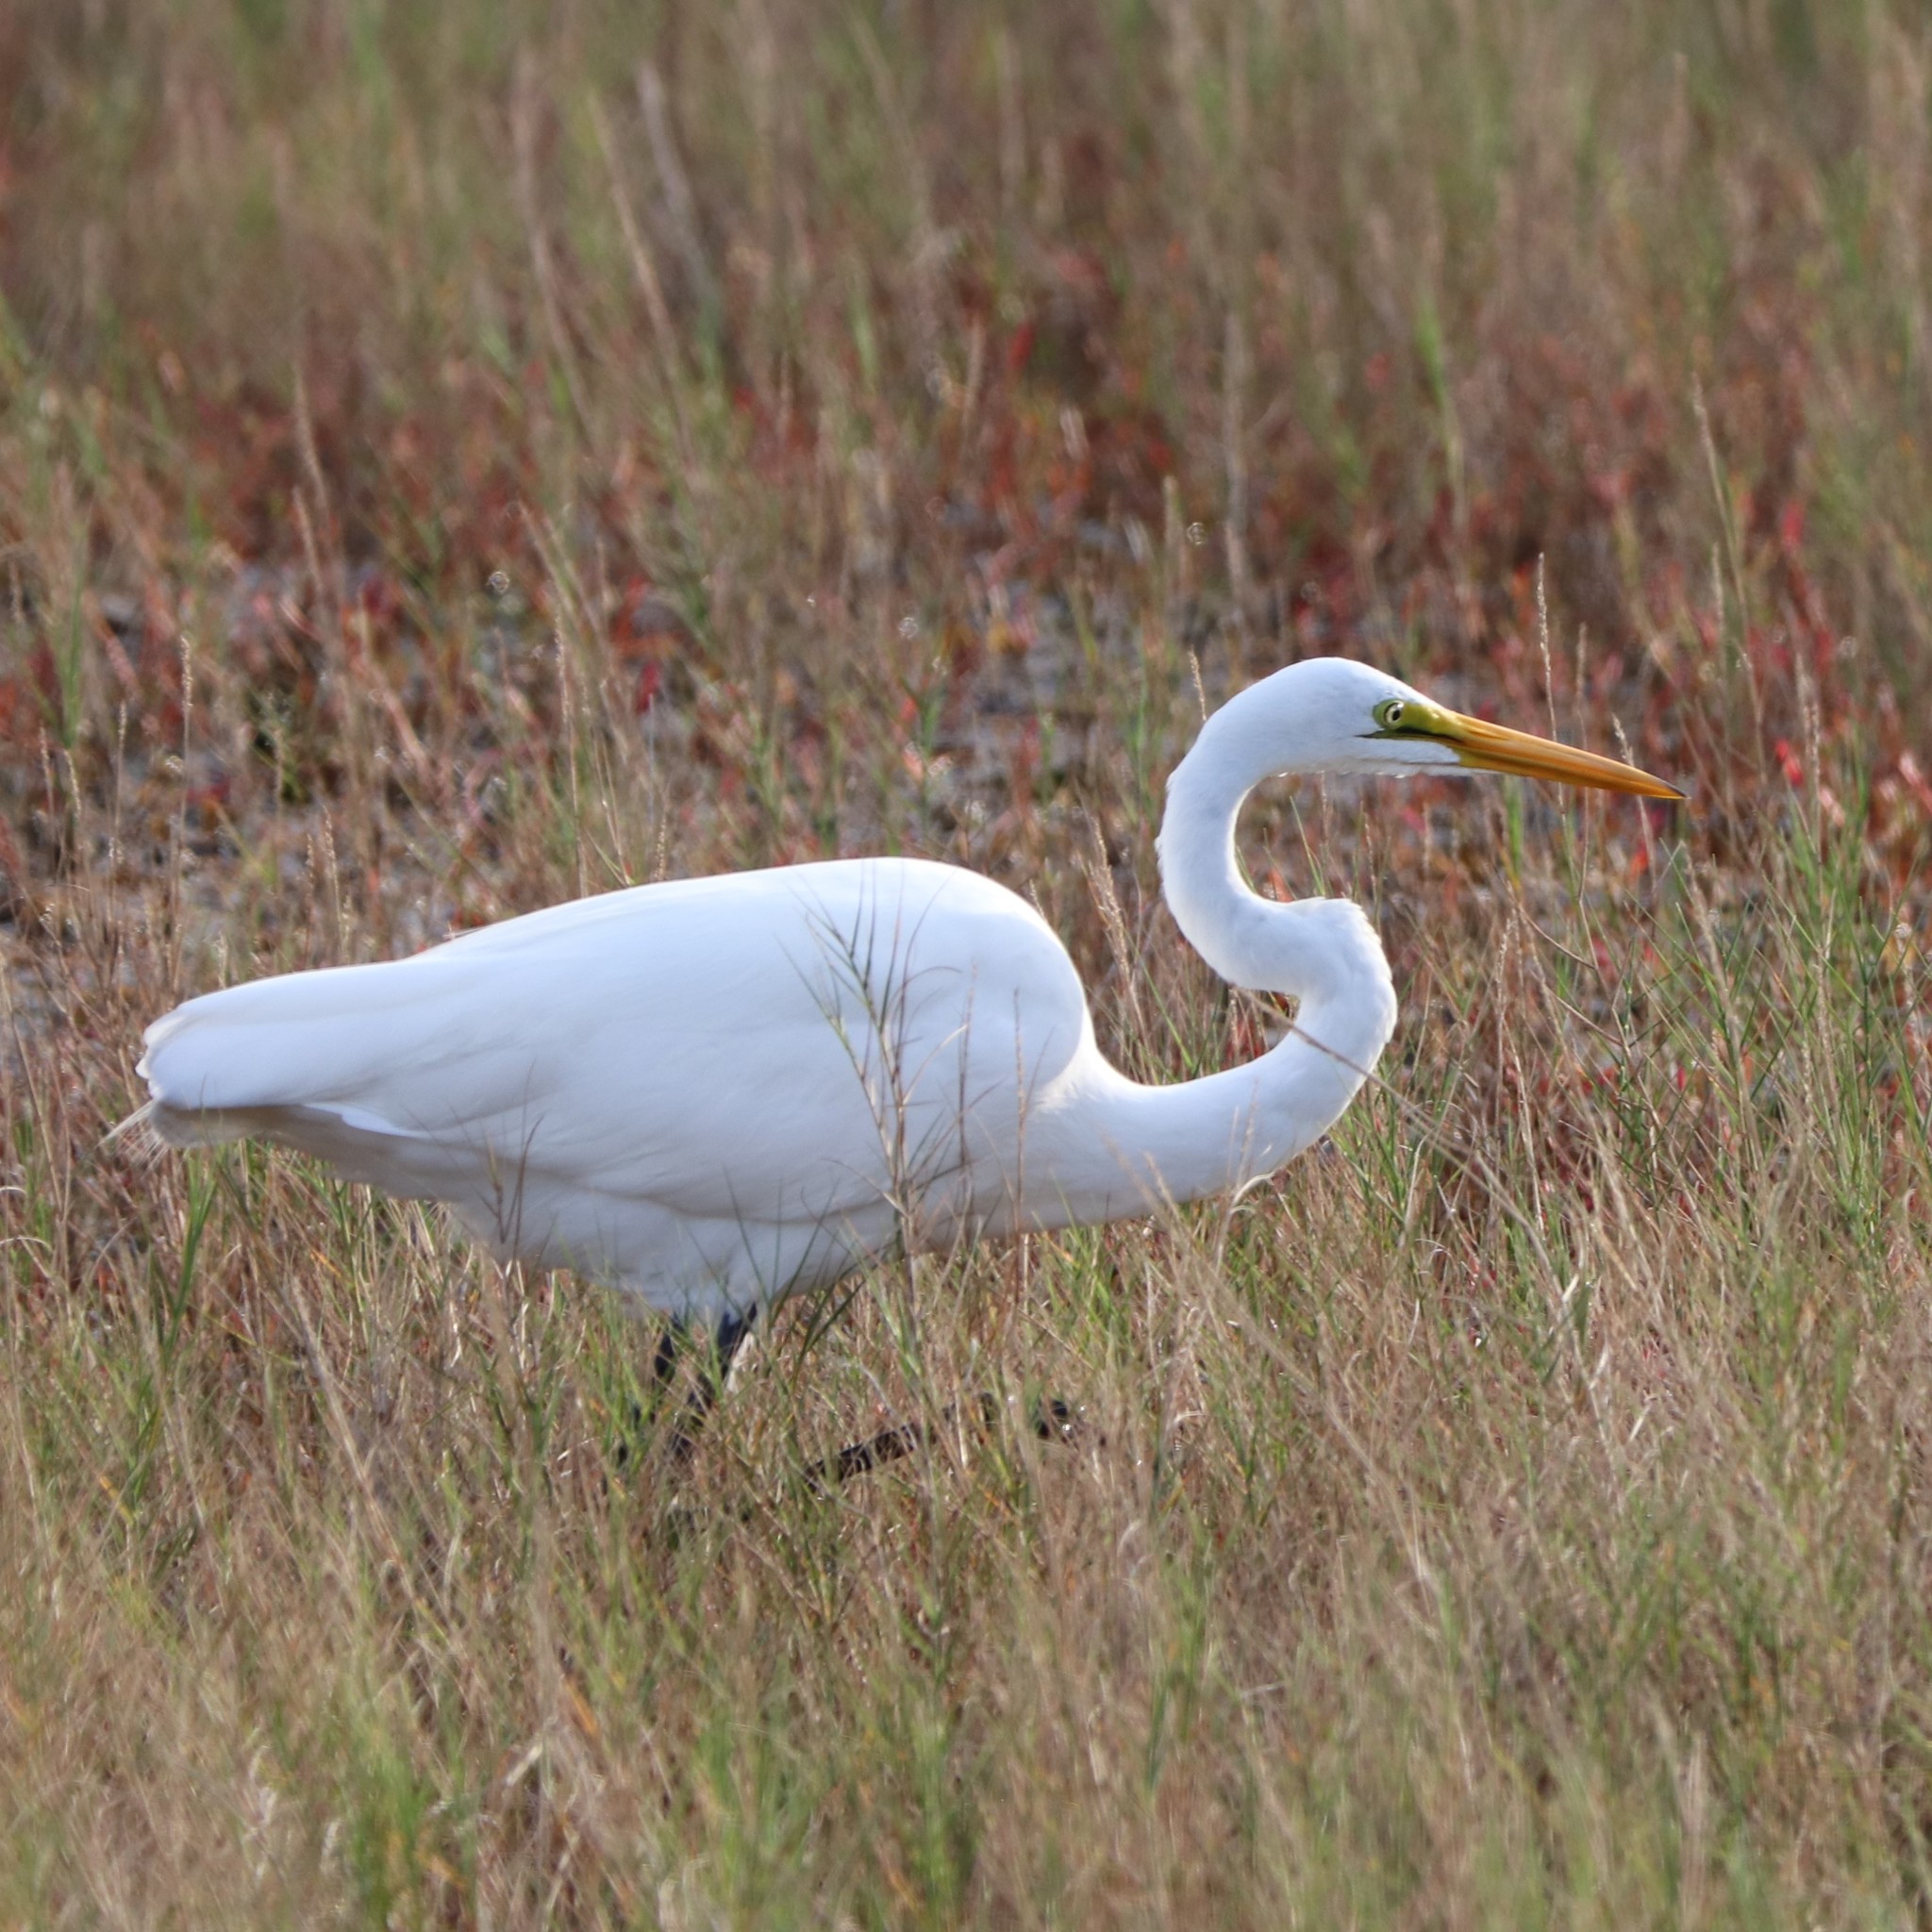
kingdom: Animalia
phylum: Chordata
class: Aves
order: Pelecaniformes
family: Ardeidae
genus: Ardea
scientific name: Ardea alba
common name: Great egret
